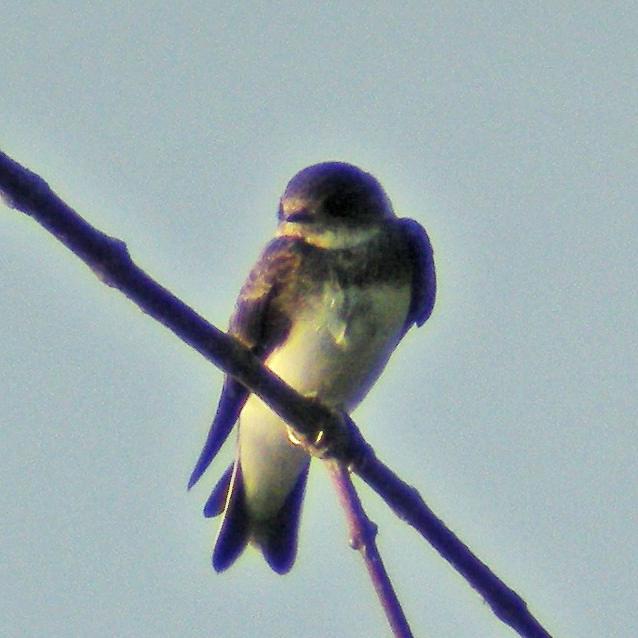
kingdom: Animalia
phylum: Chordata
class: Aves
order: Passeriformes
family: Hirundinidae
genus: Riparia
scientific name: Riparia riparia
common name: Sand martin
